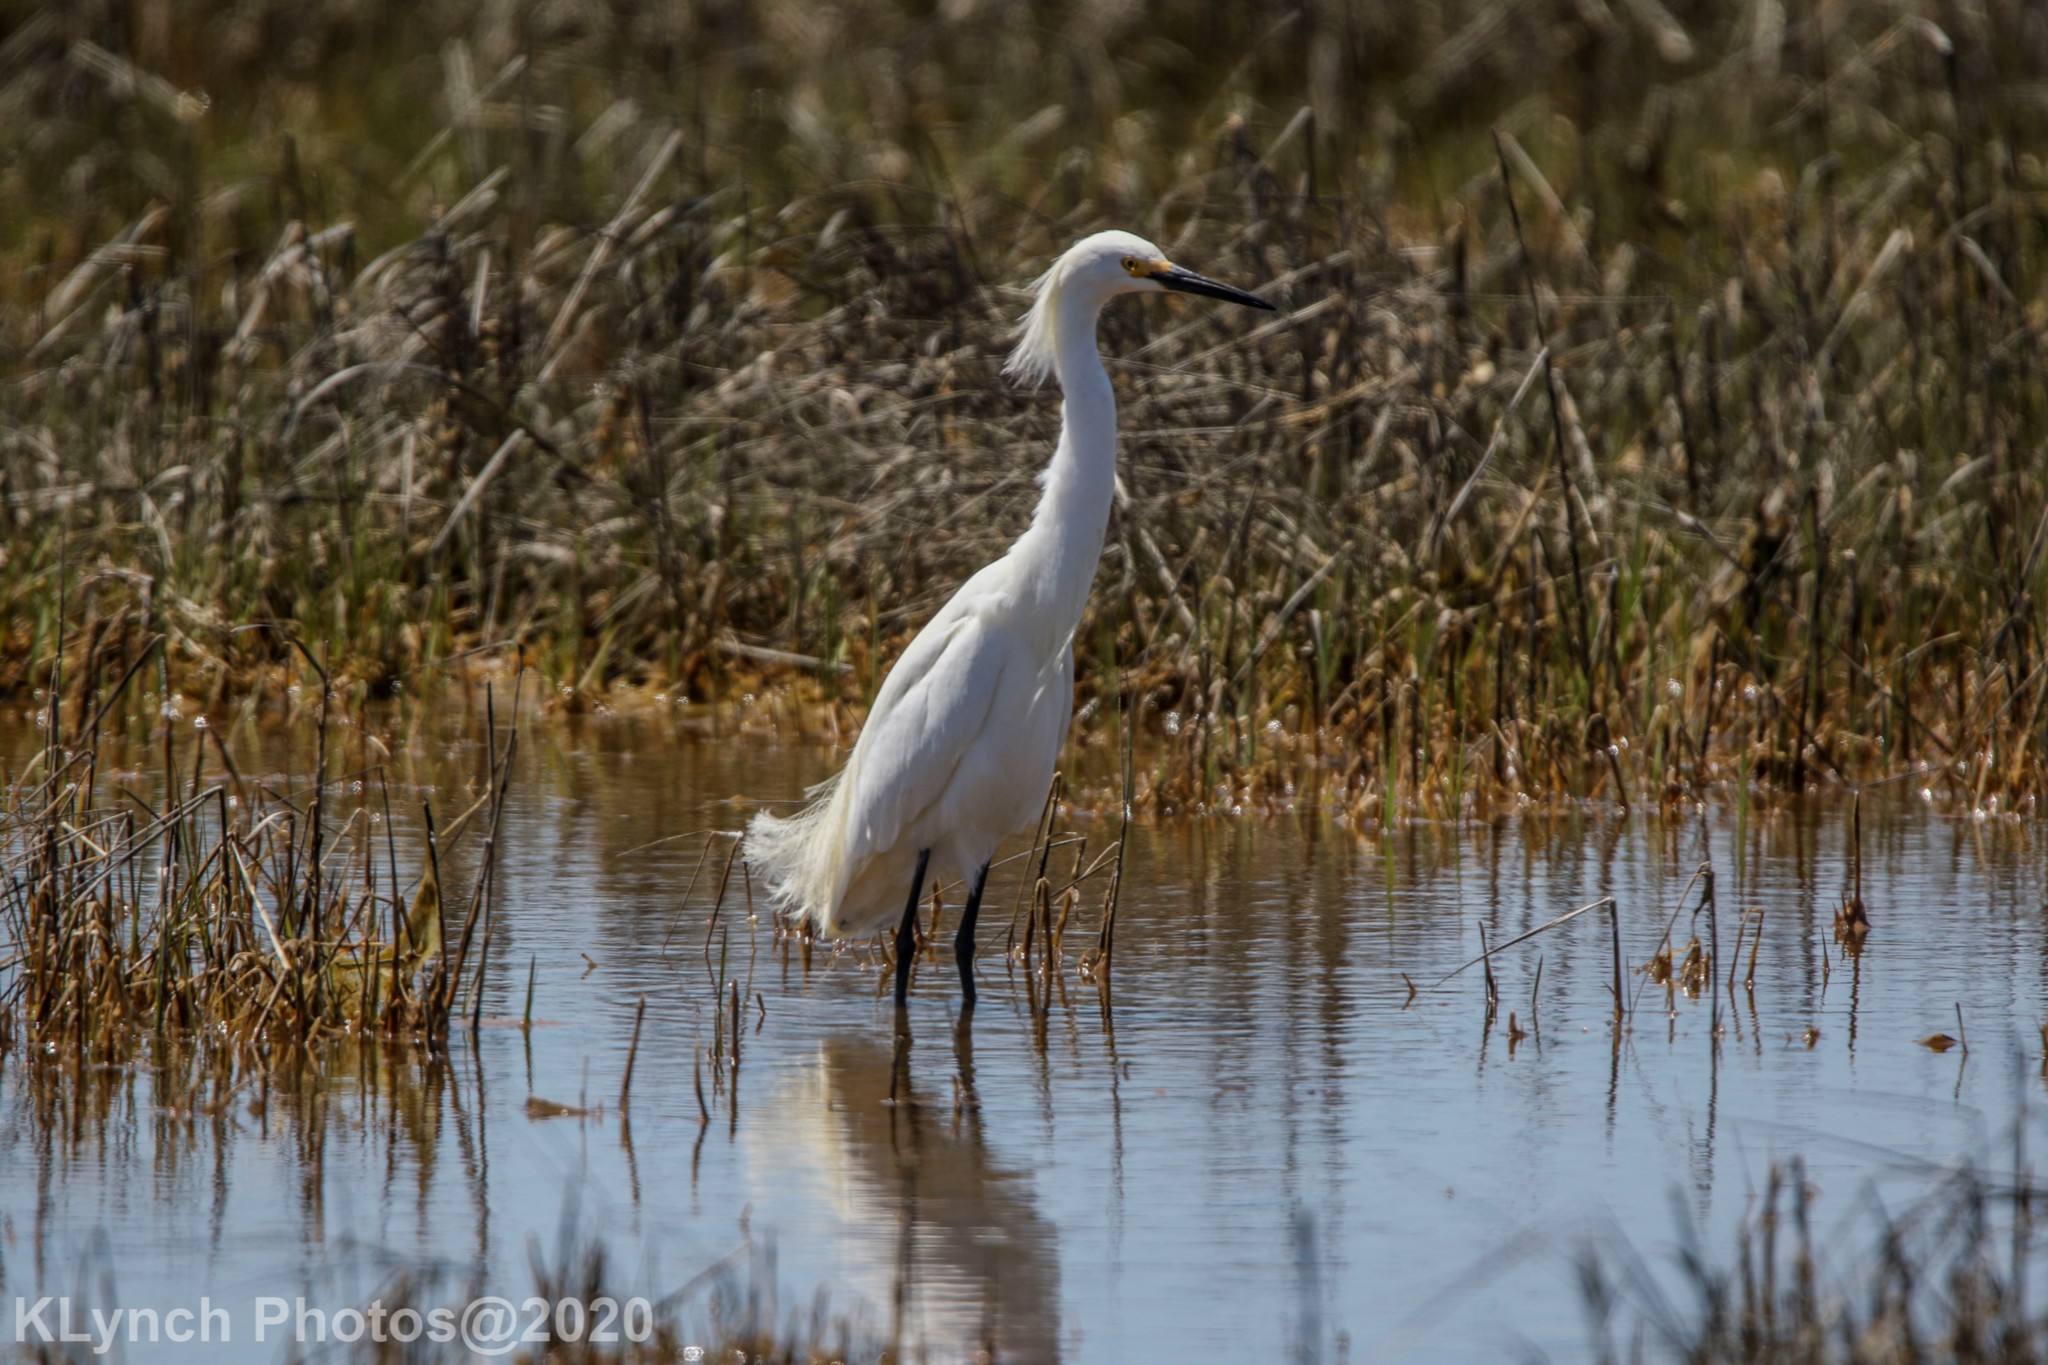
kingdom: Animalia
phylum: Chordata
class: Aves
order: Pelecaniformes
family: Ardeidae
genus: Egretta
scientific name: Egretta thula
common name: Snowy egret
